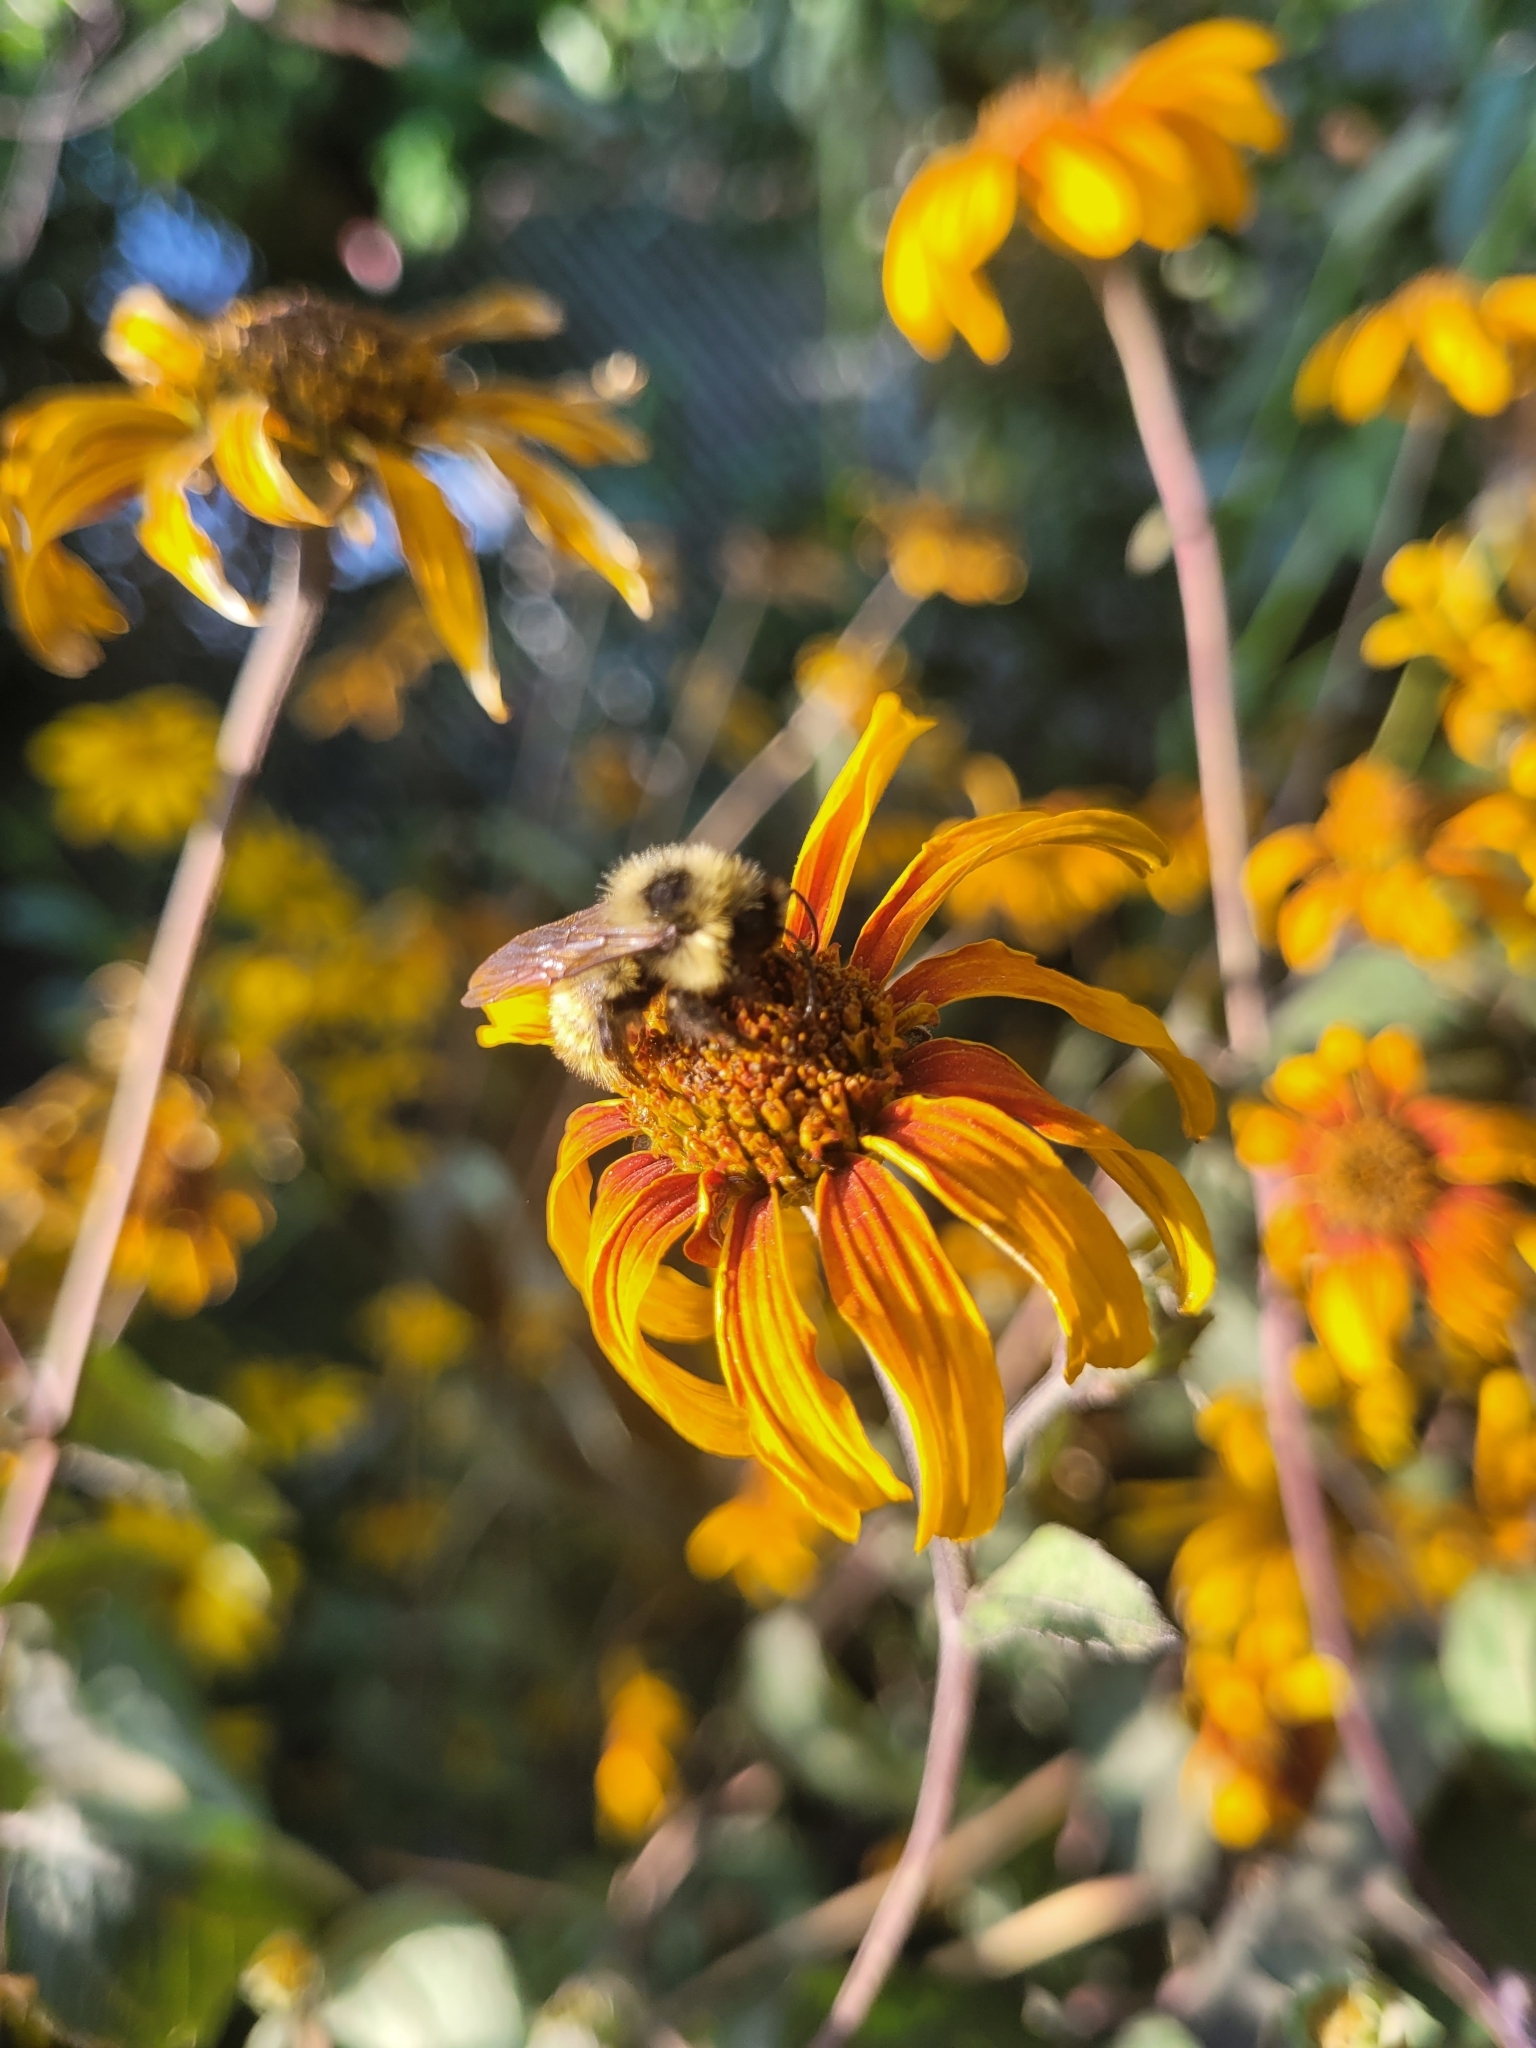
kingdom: Animalia
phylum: Arthropoda
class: Insecta
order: Hymenoptera
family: Apidae
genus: Bombus
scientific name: Bombus flavidus
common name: Fernald cuckoo bumble bee
